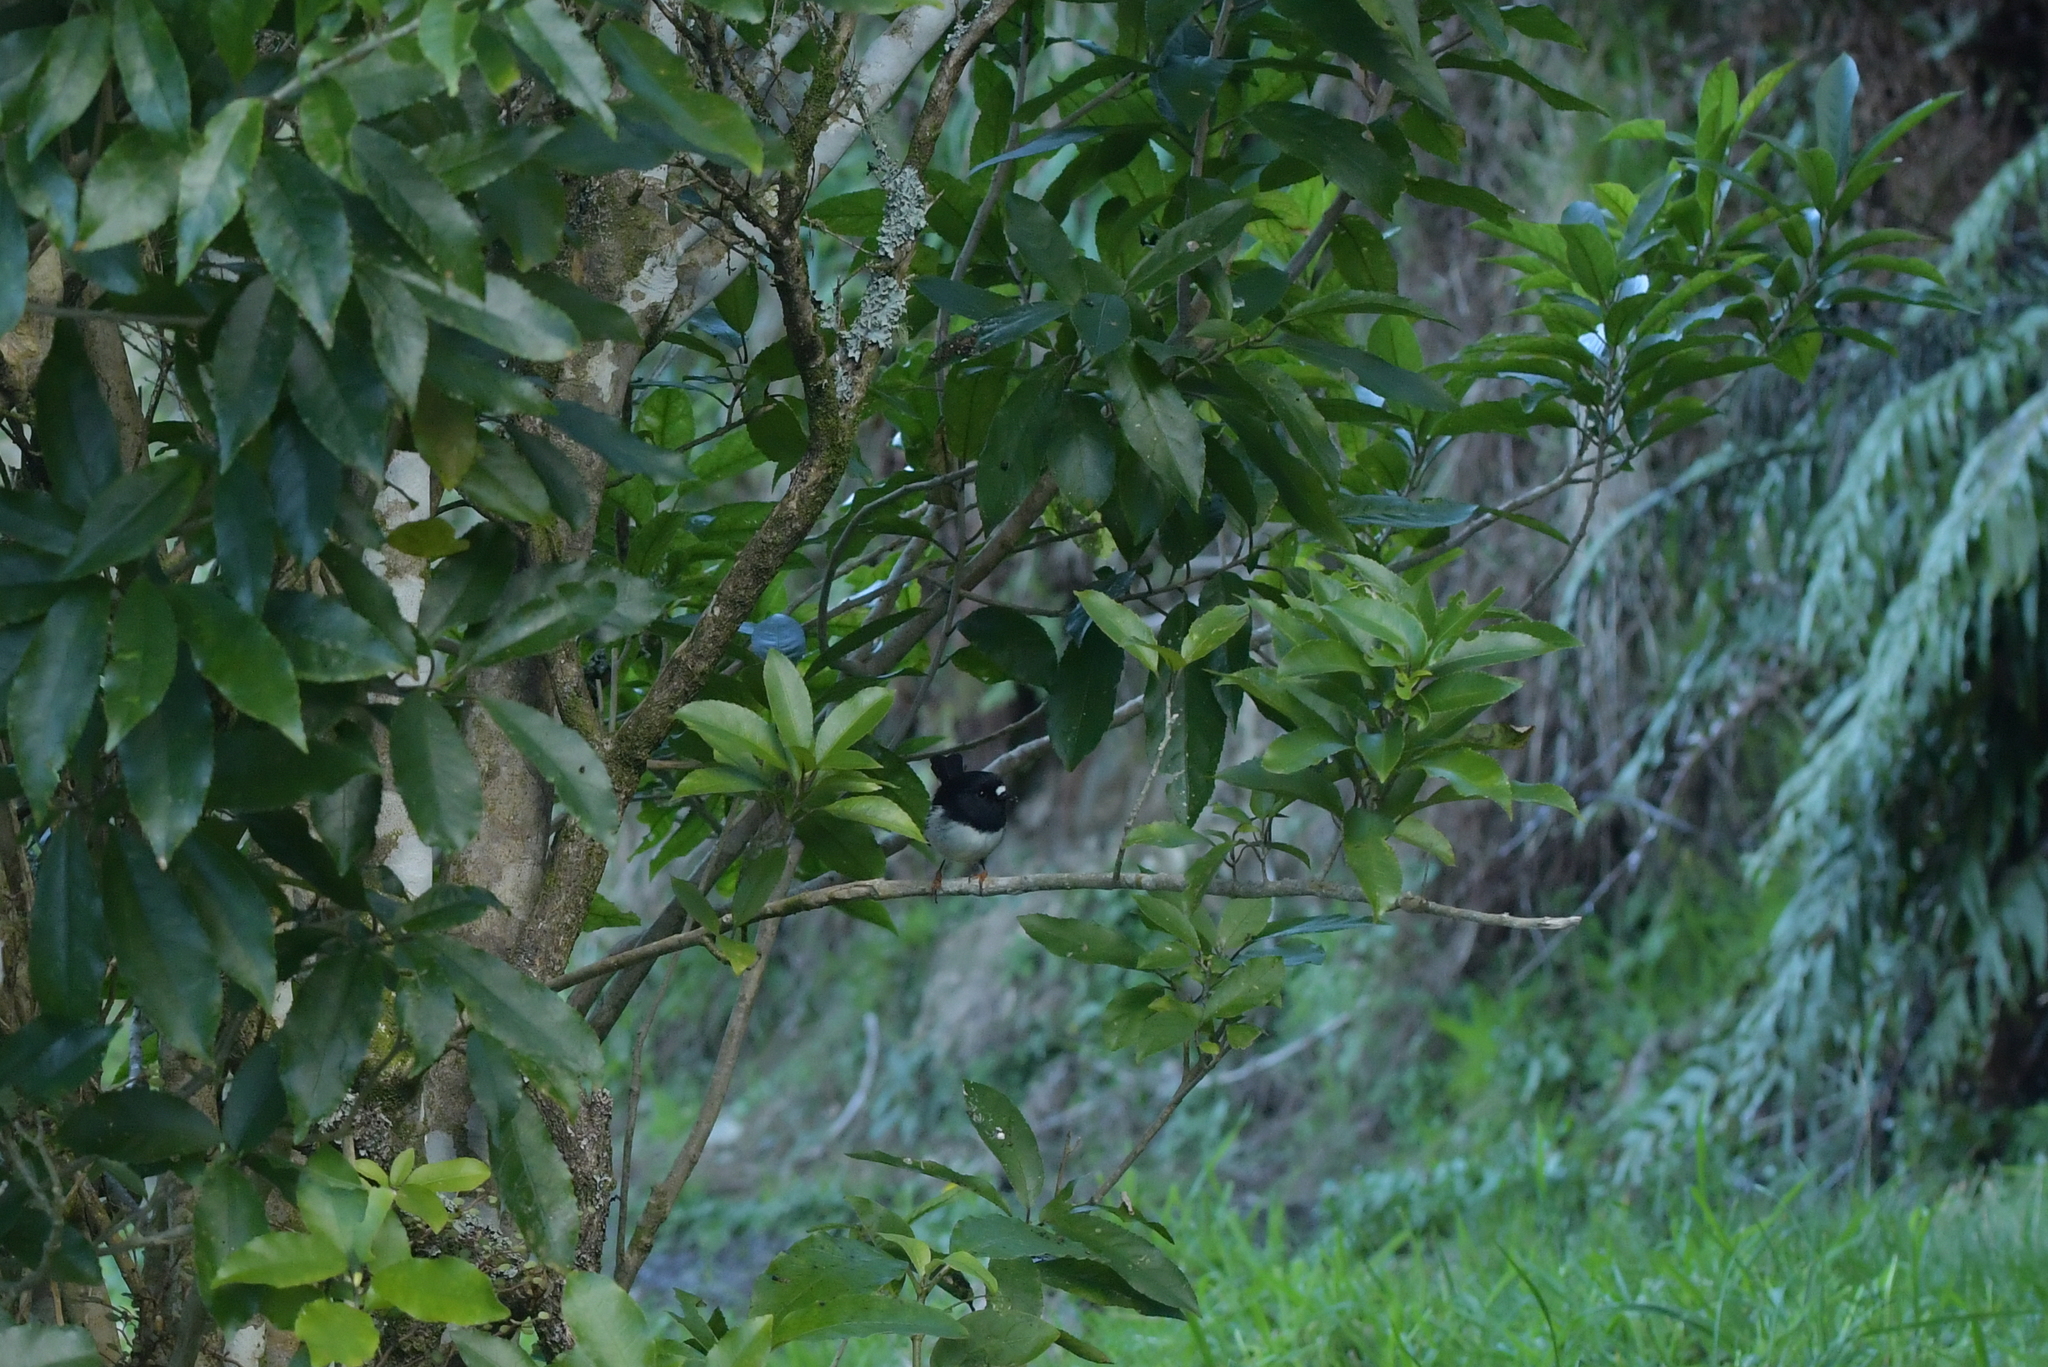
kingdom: Animalia
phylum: Chordata
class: Aves
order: Passeriformes
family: Petroicidae
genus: Petroica
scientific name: Petroica macrocephala
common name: Tomtit
